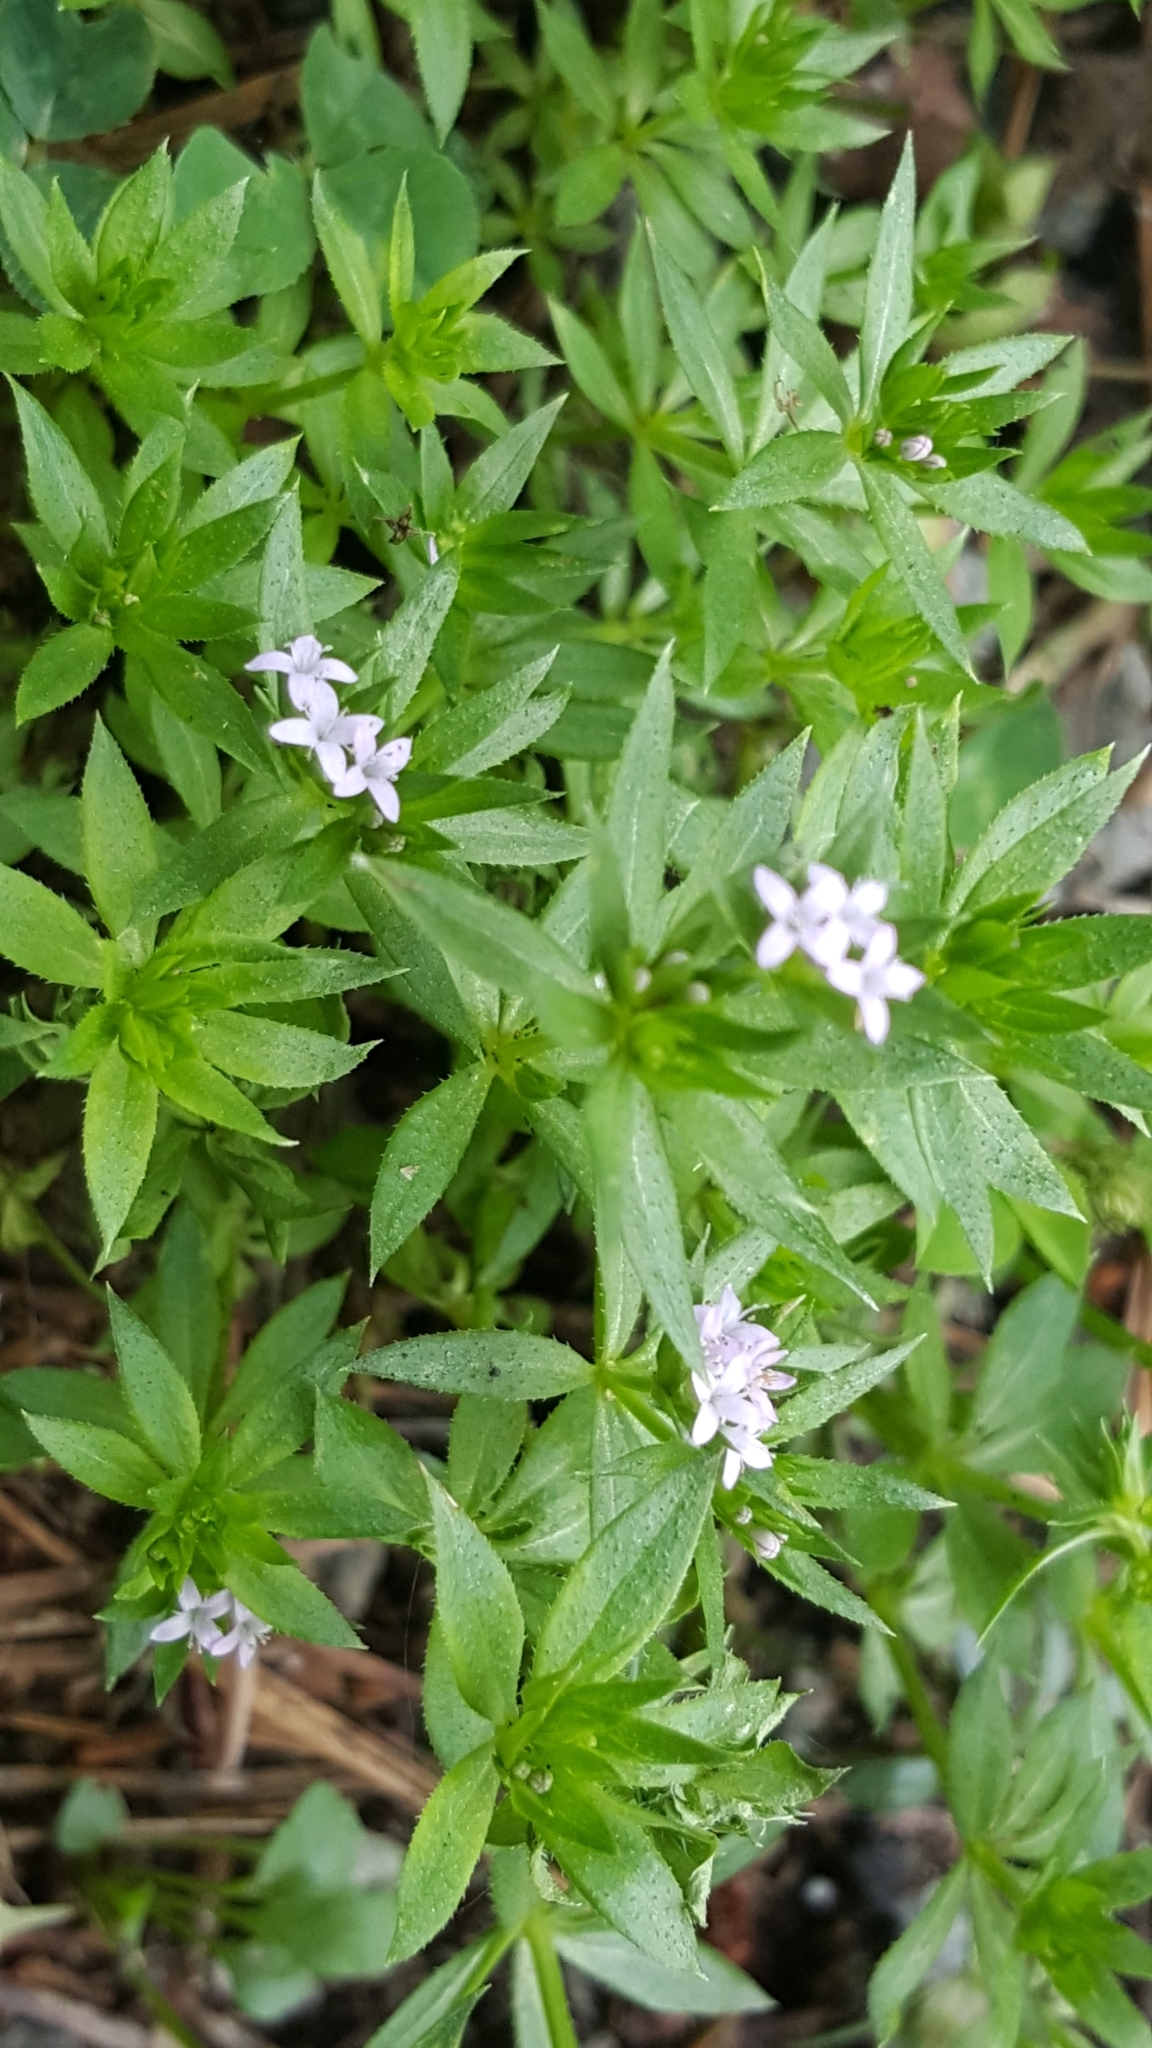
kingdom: Plantae
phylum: Tracheophyta
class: Magnoliopsida
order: Gentianales
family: Rubiaceae
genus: Sherardia
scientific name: Sherardia arvensis
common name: Field madder
